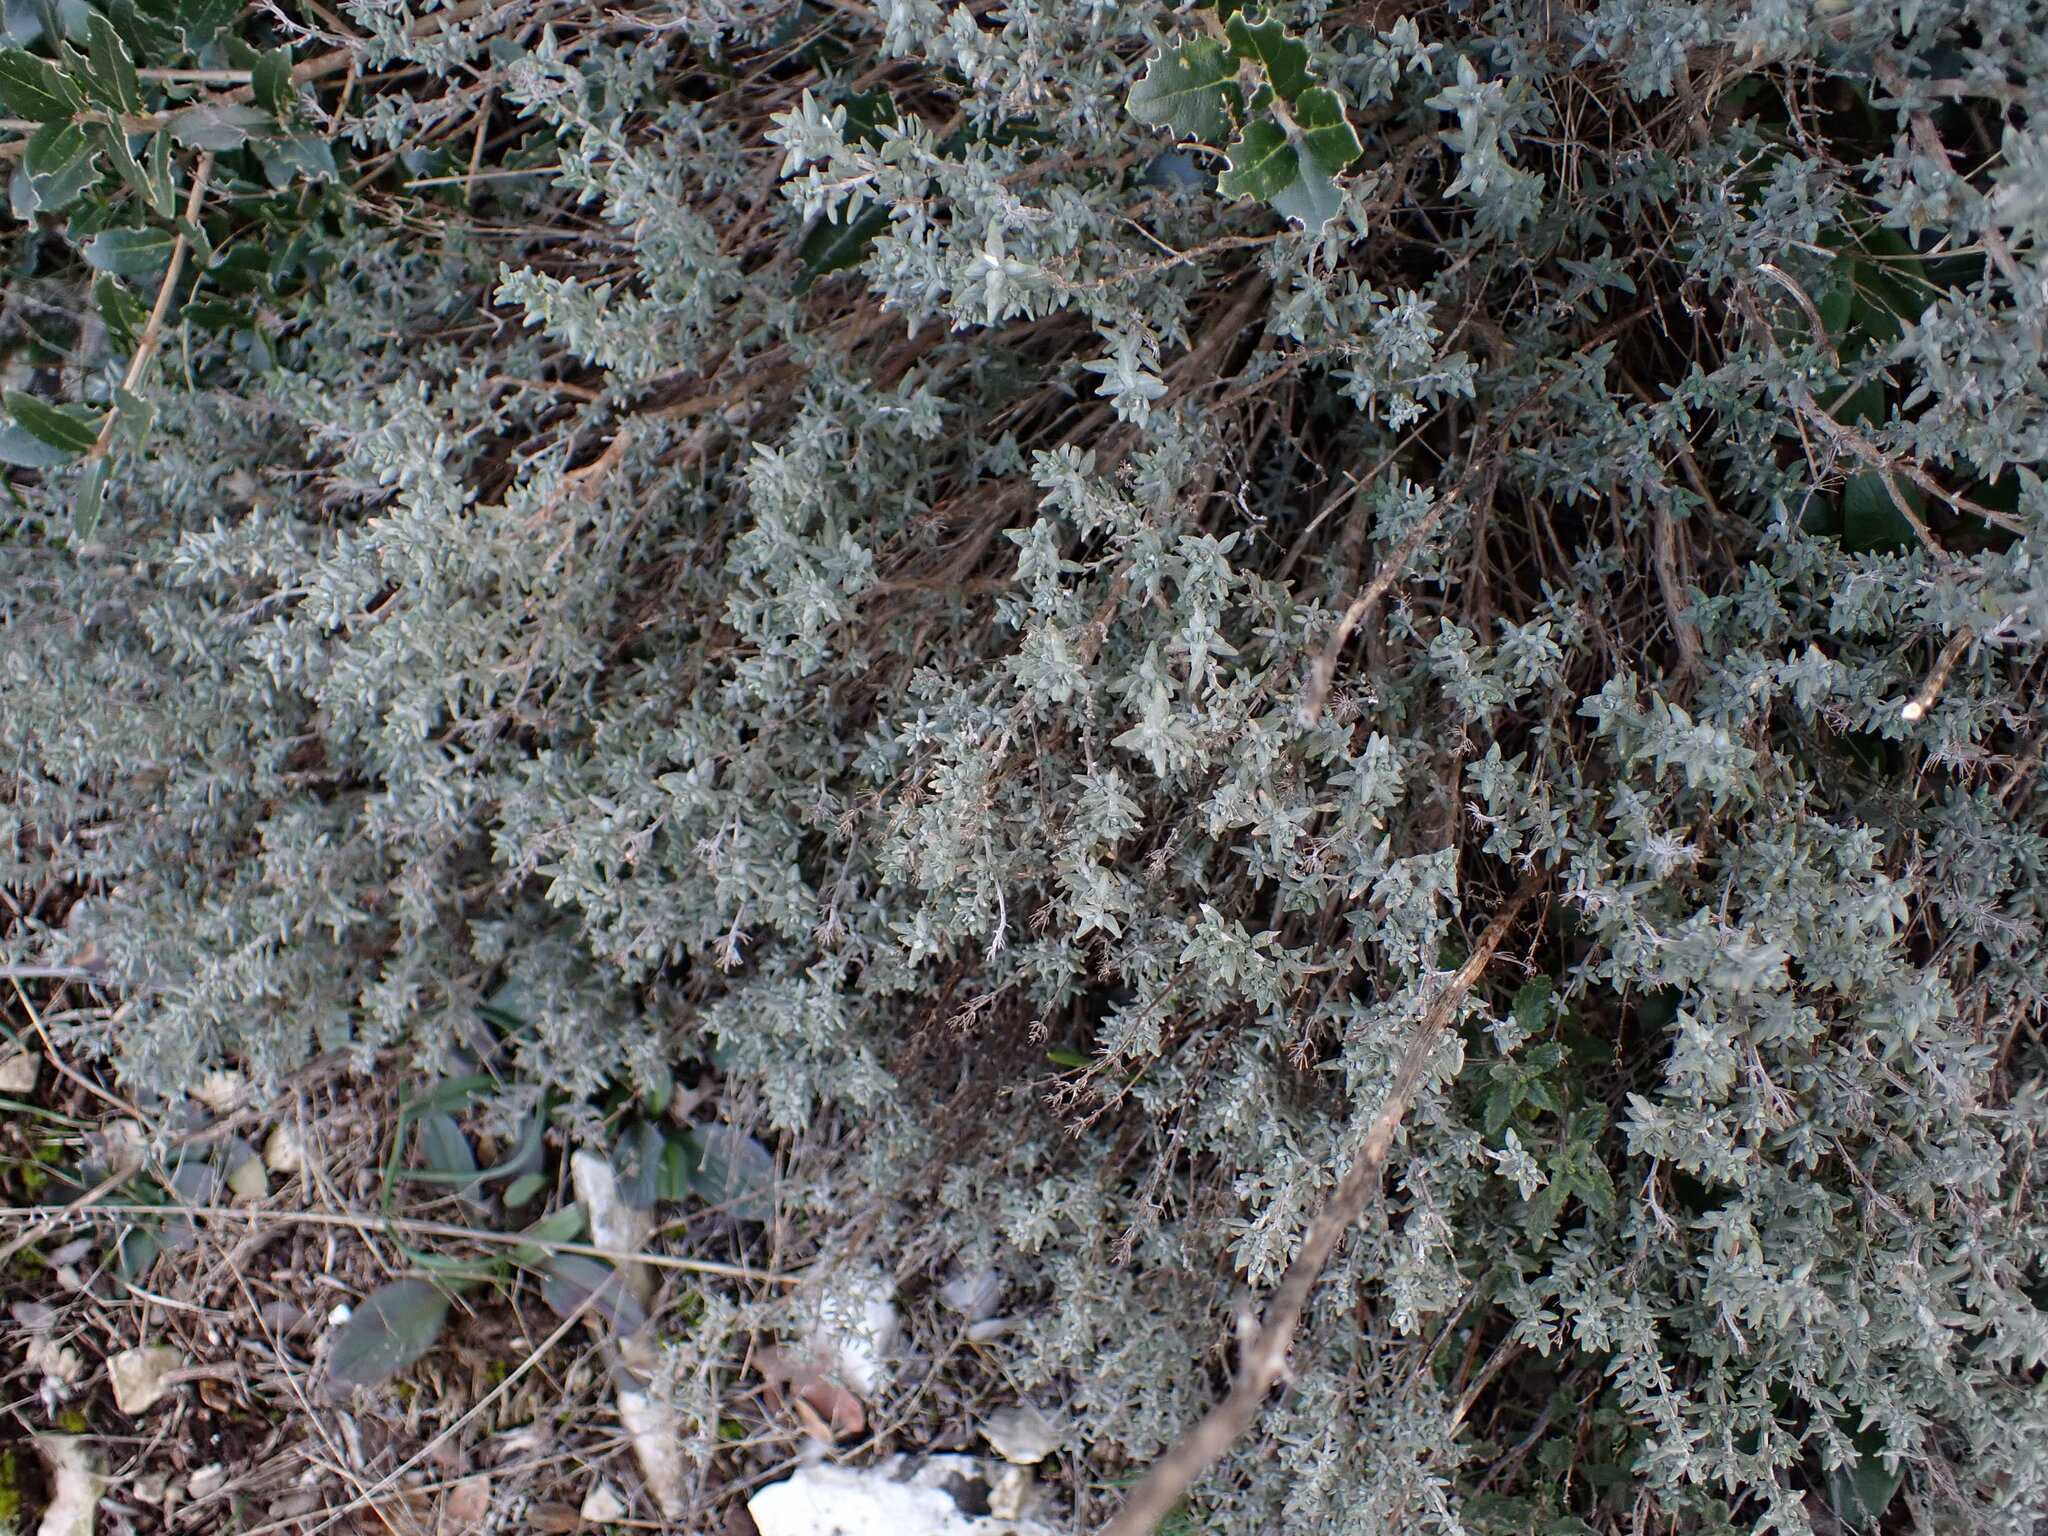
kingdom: Plantae
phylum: Tracheophyta
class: Magnoliopsida
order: Lamiales
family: Lamiaceae
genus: Thymus
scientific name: Thymus vulgaris
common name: Garden thyme
